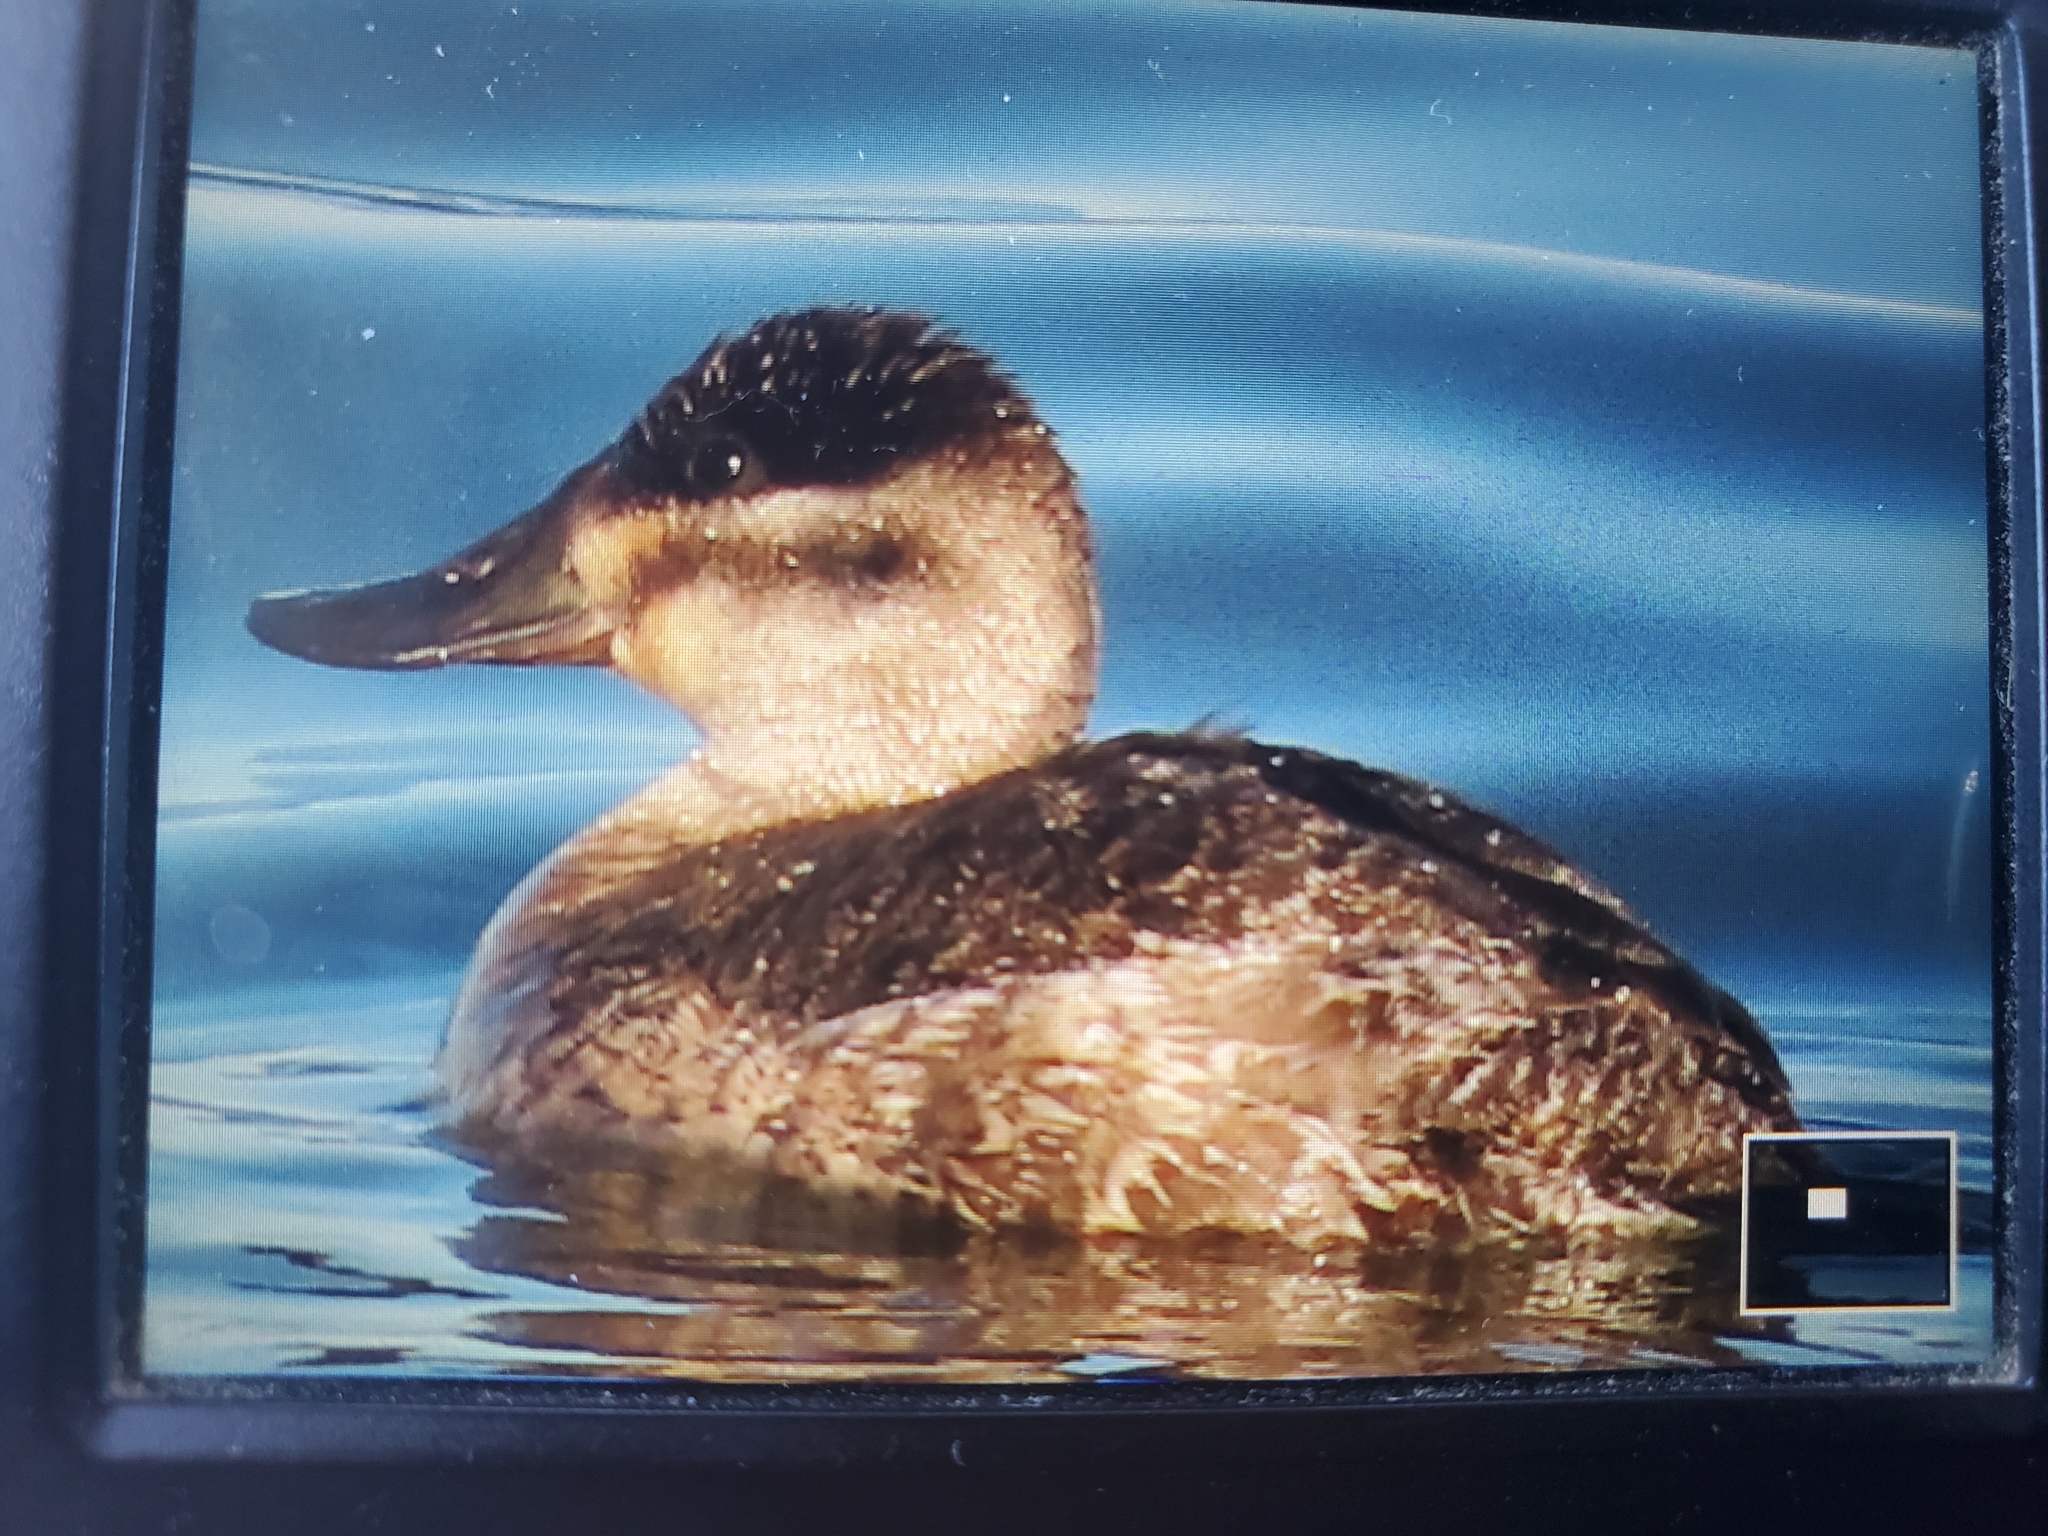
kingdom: Animalia
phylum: Chordata
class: Aves
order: Anseriformes
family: Anatidae
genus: Oxyura
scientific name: Oxyura jamaicensis
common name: Ruddy duck
